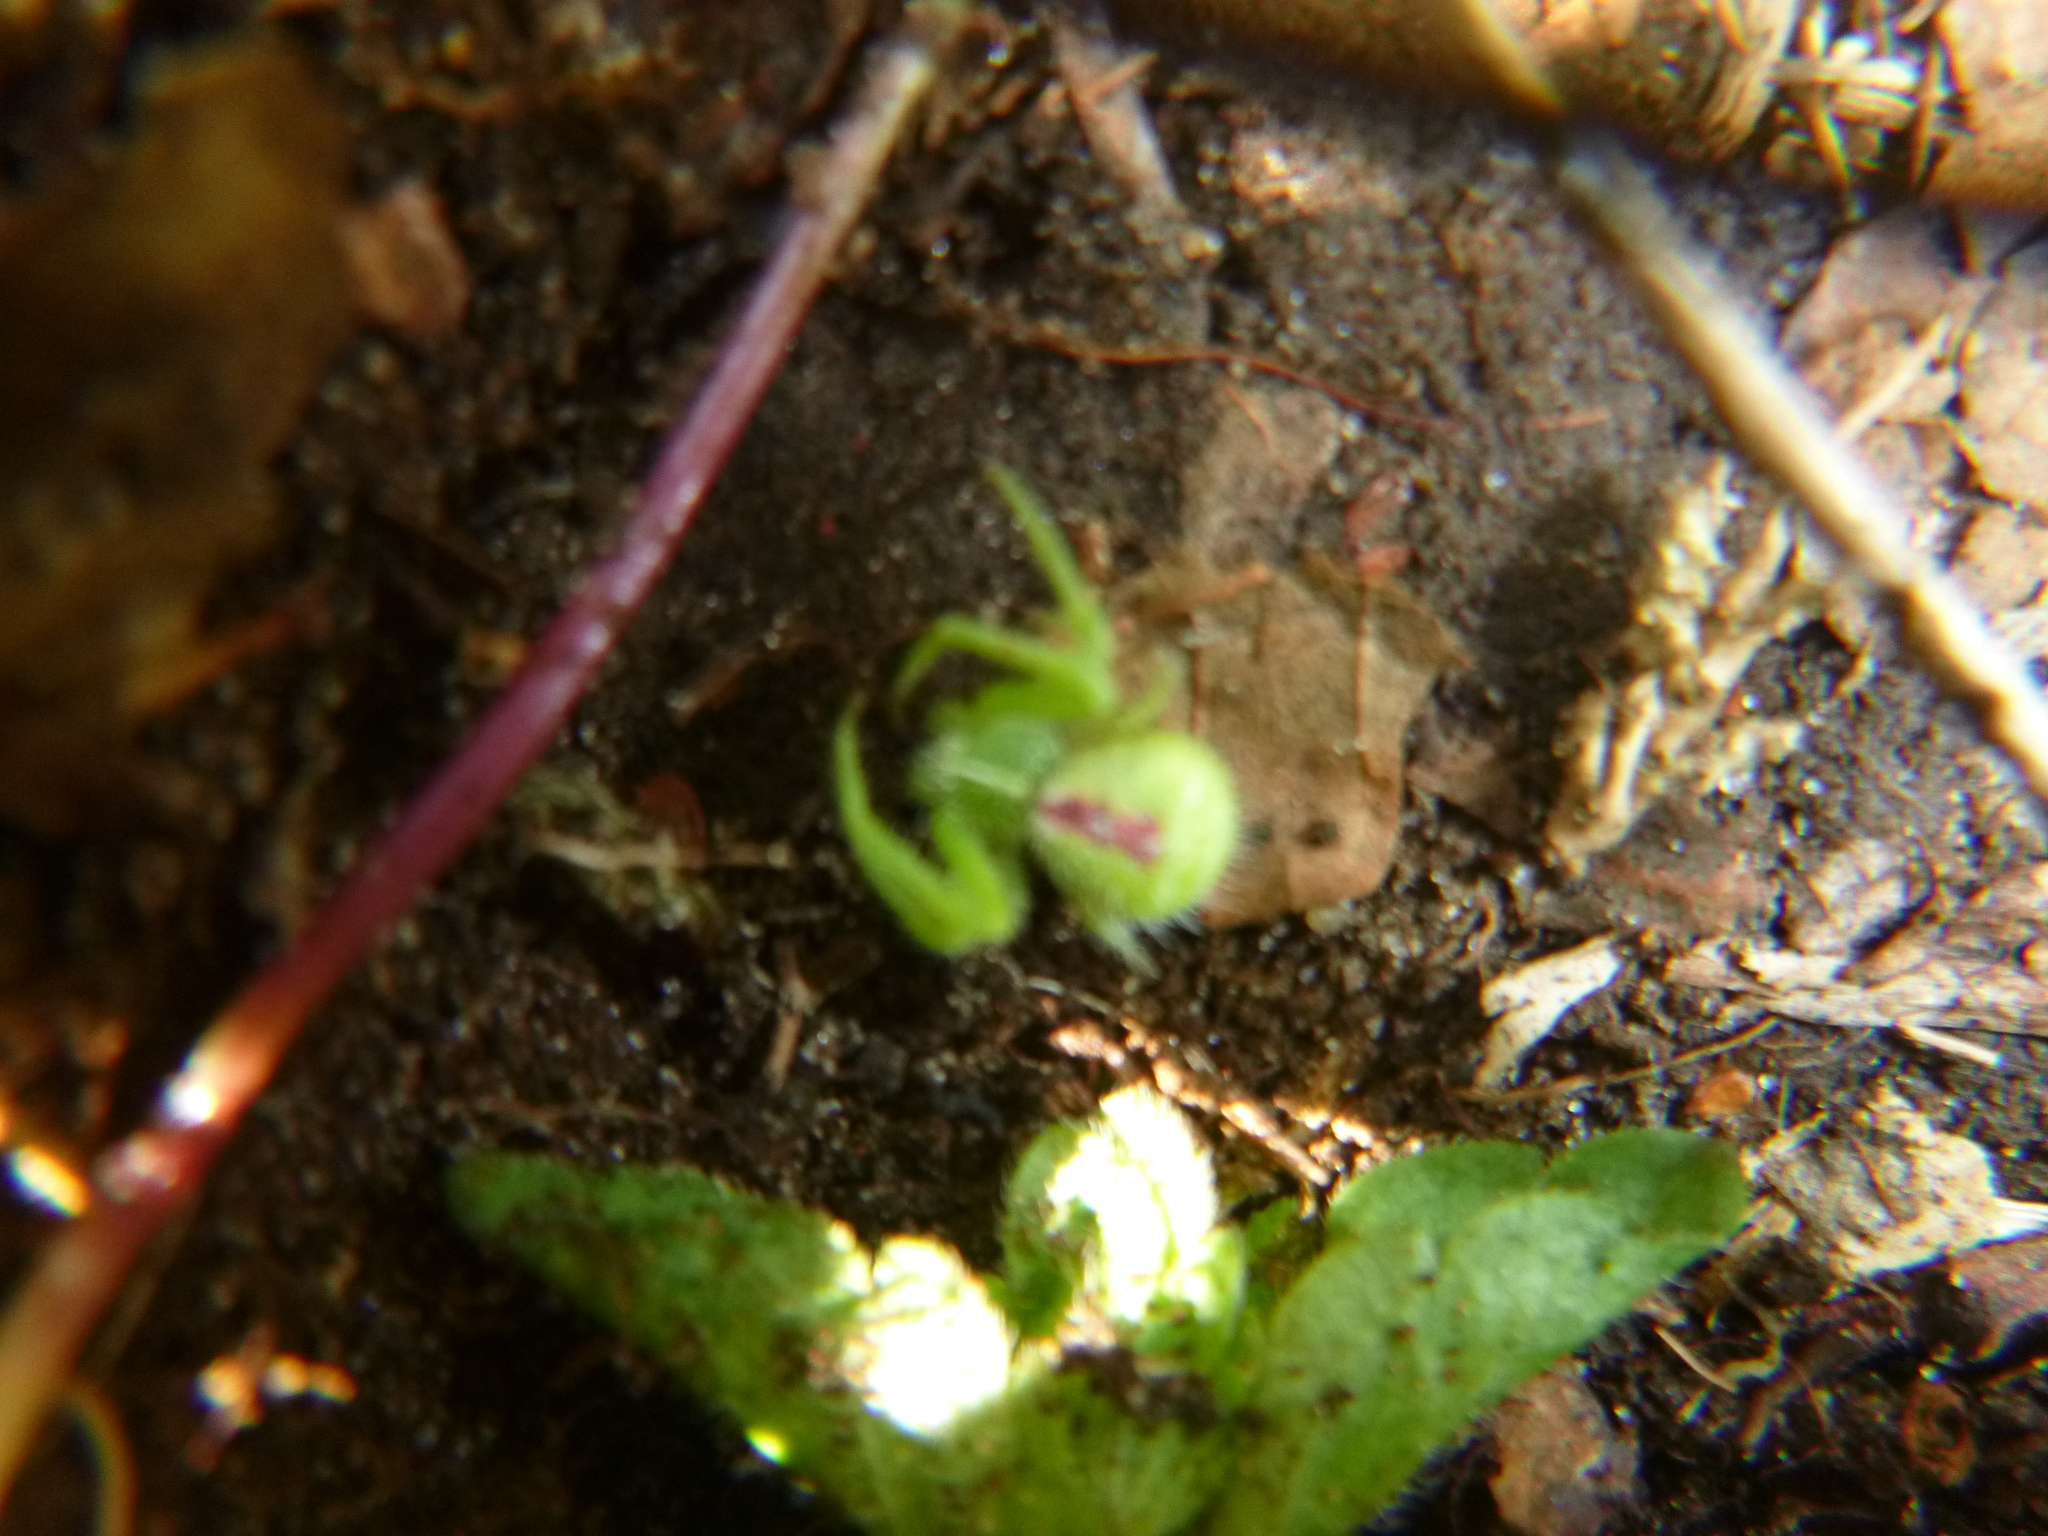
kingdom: Animalia
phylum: Arthropoda
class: Arachnida
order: Araneae
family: Thomisidae
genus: Heriaeus
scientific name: Heriaeus graminicola
